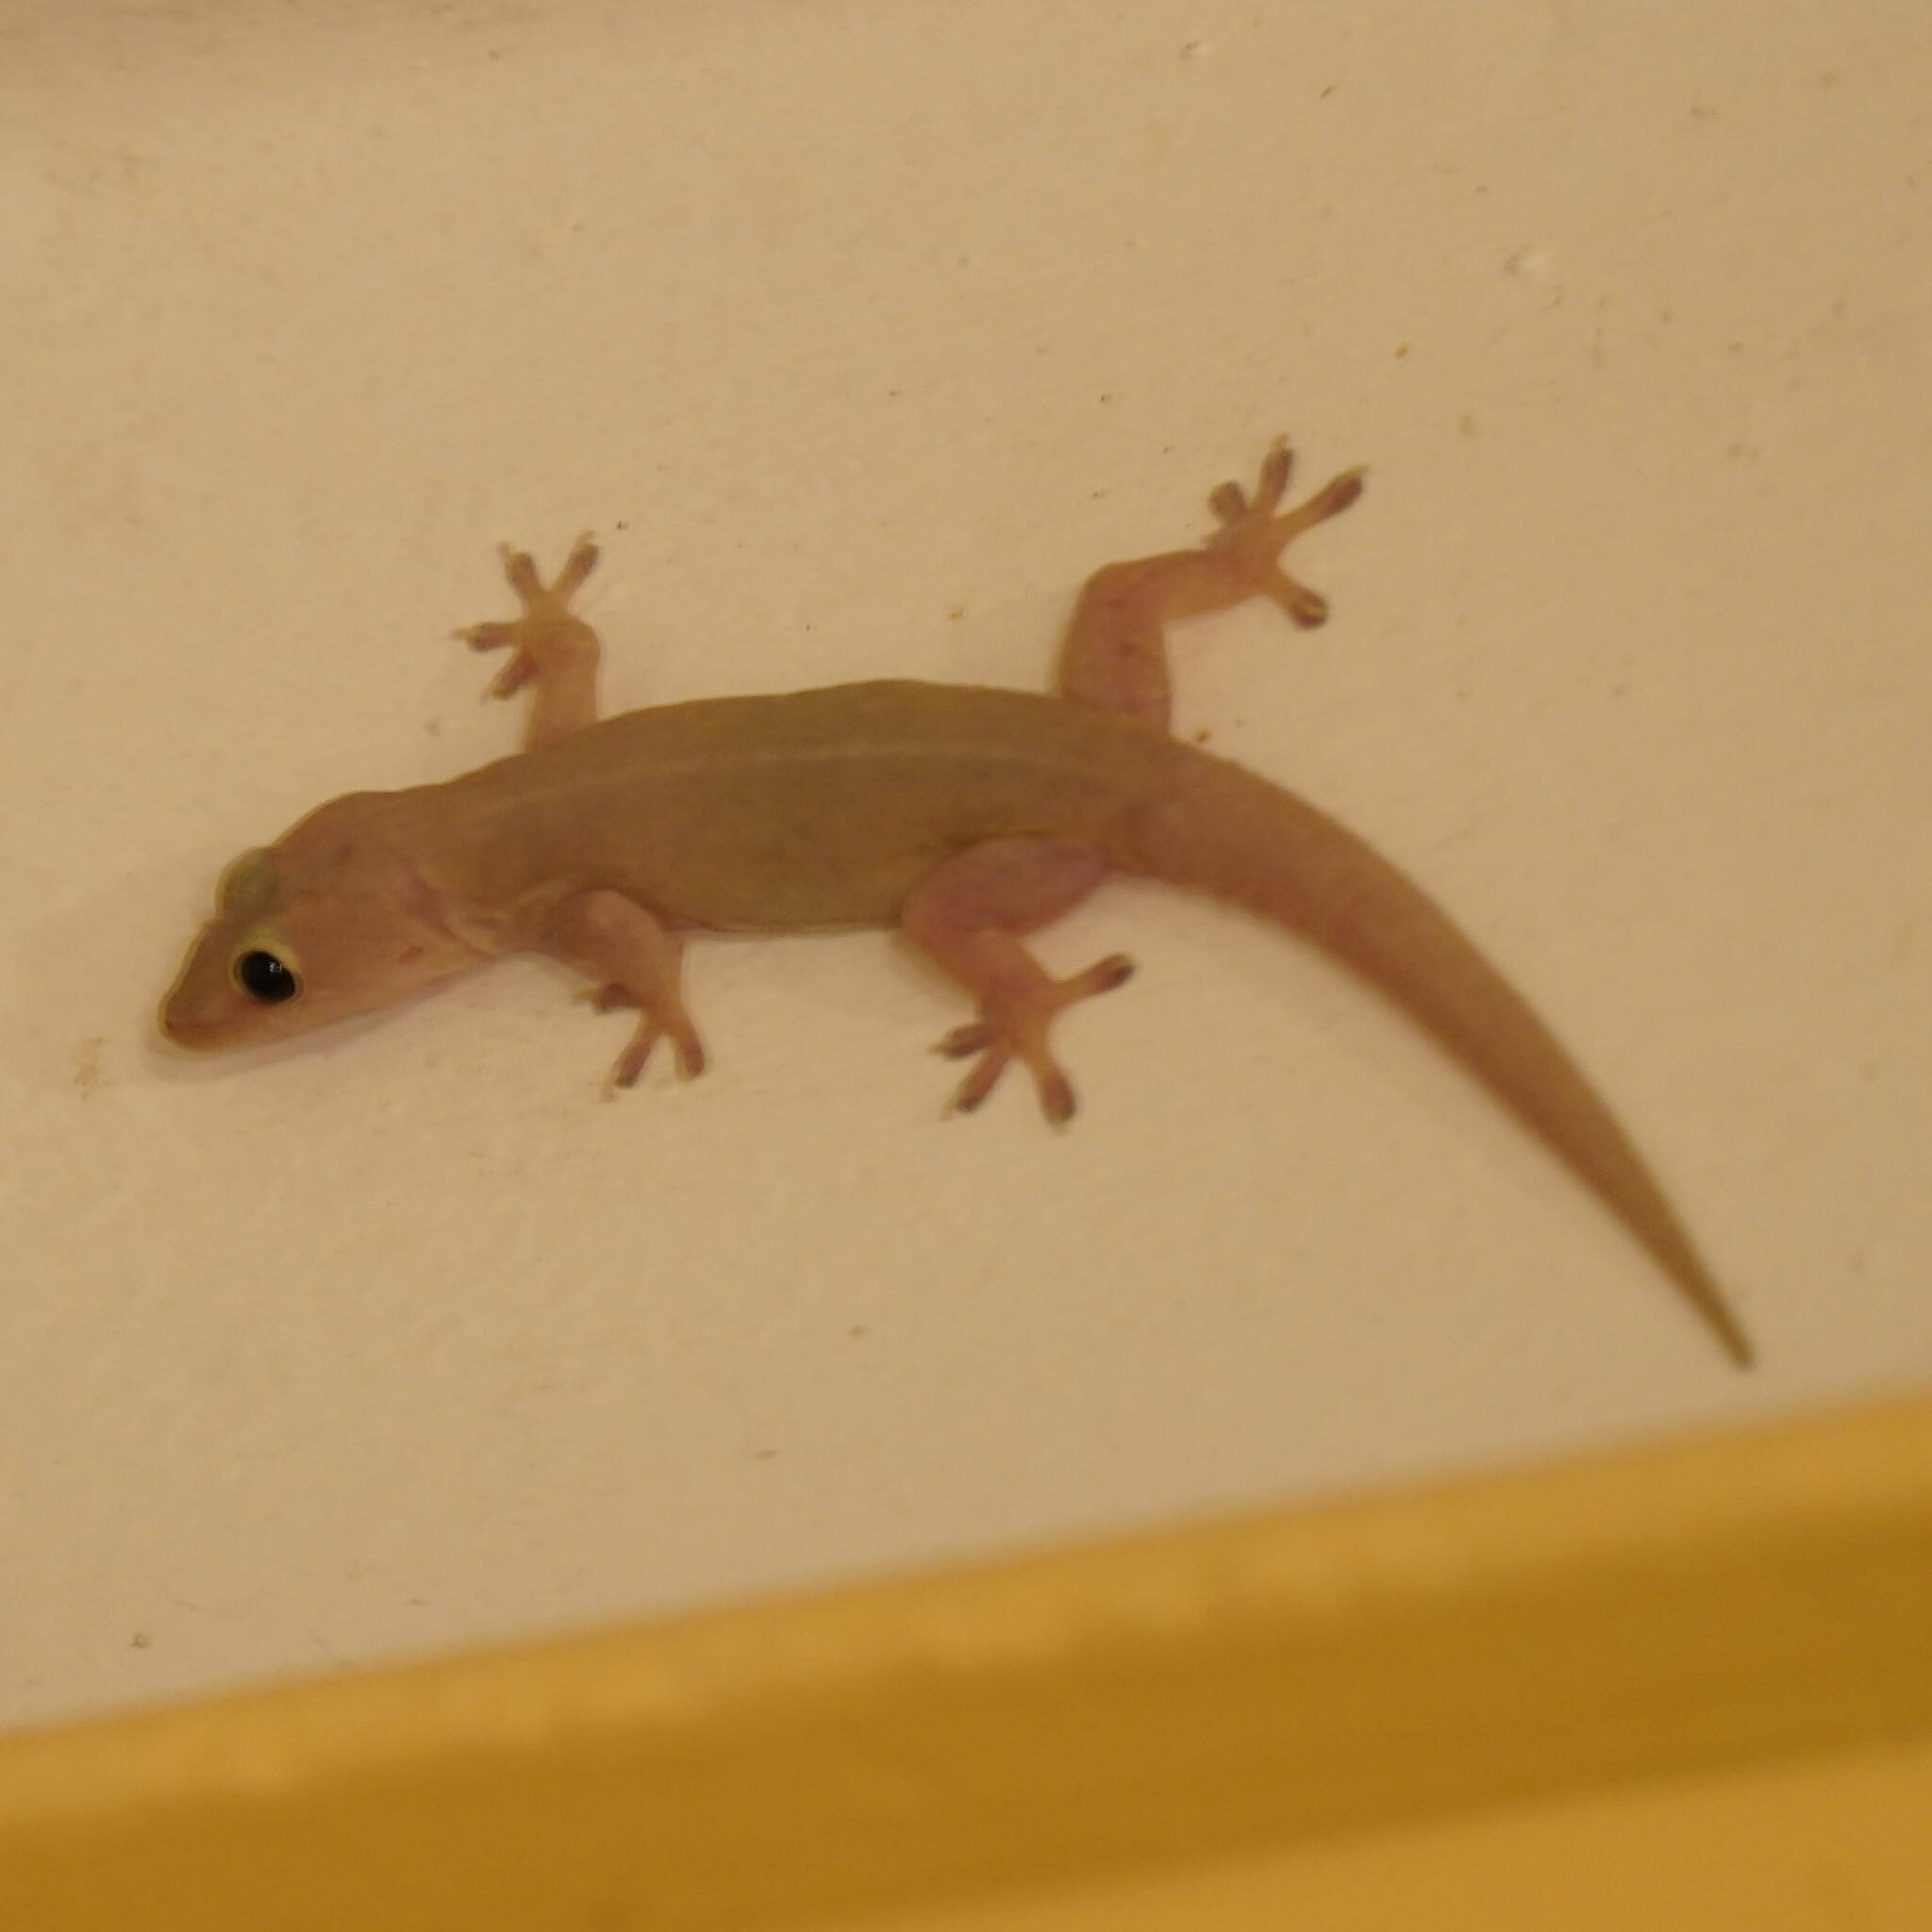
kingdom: Animalia
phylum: Chordata
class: Squamata
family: Gekkonidae
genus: Hemidactylus
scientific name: Hemidactylus frenatus
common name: Common house gecko
